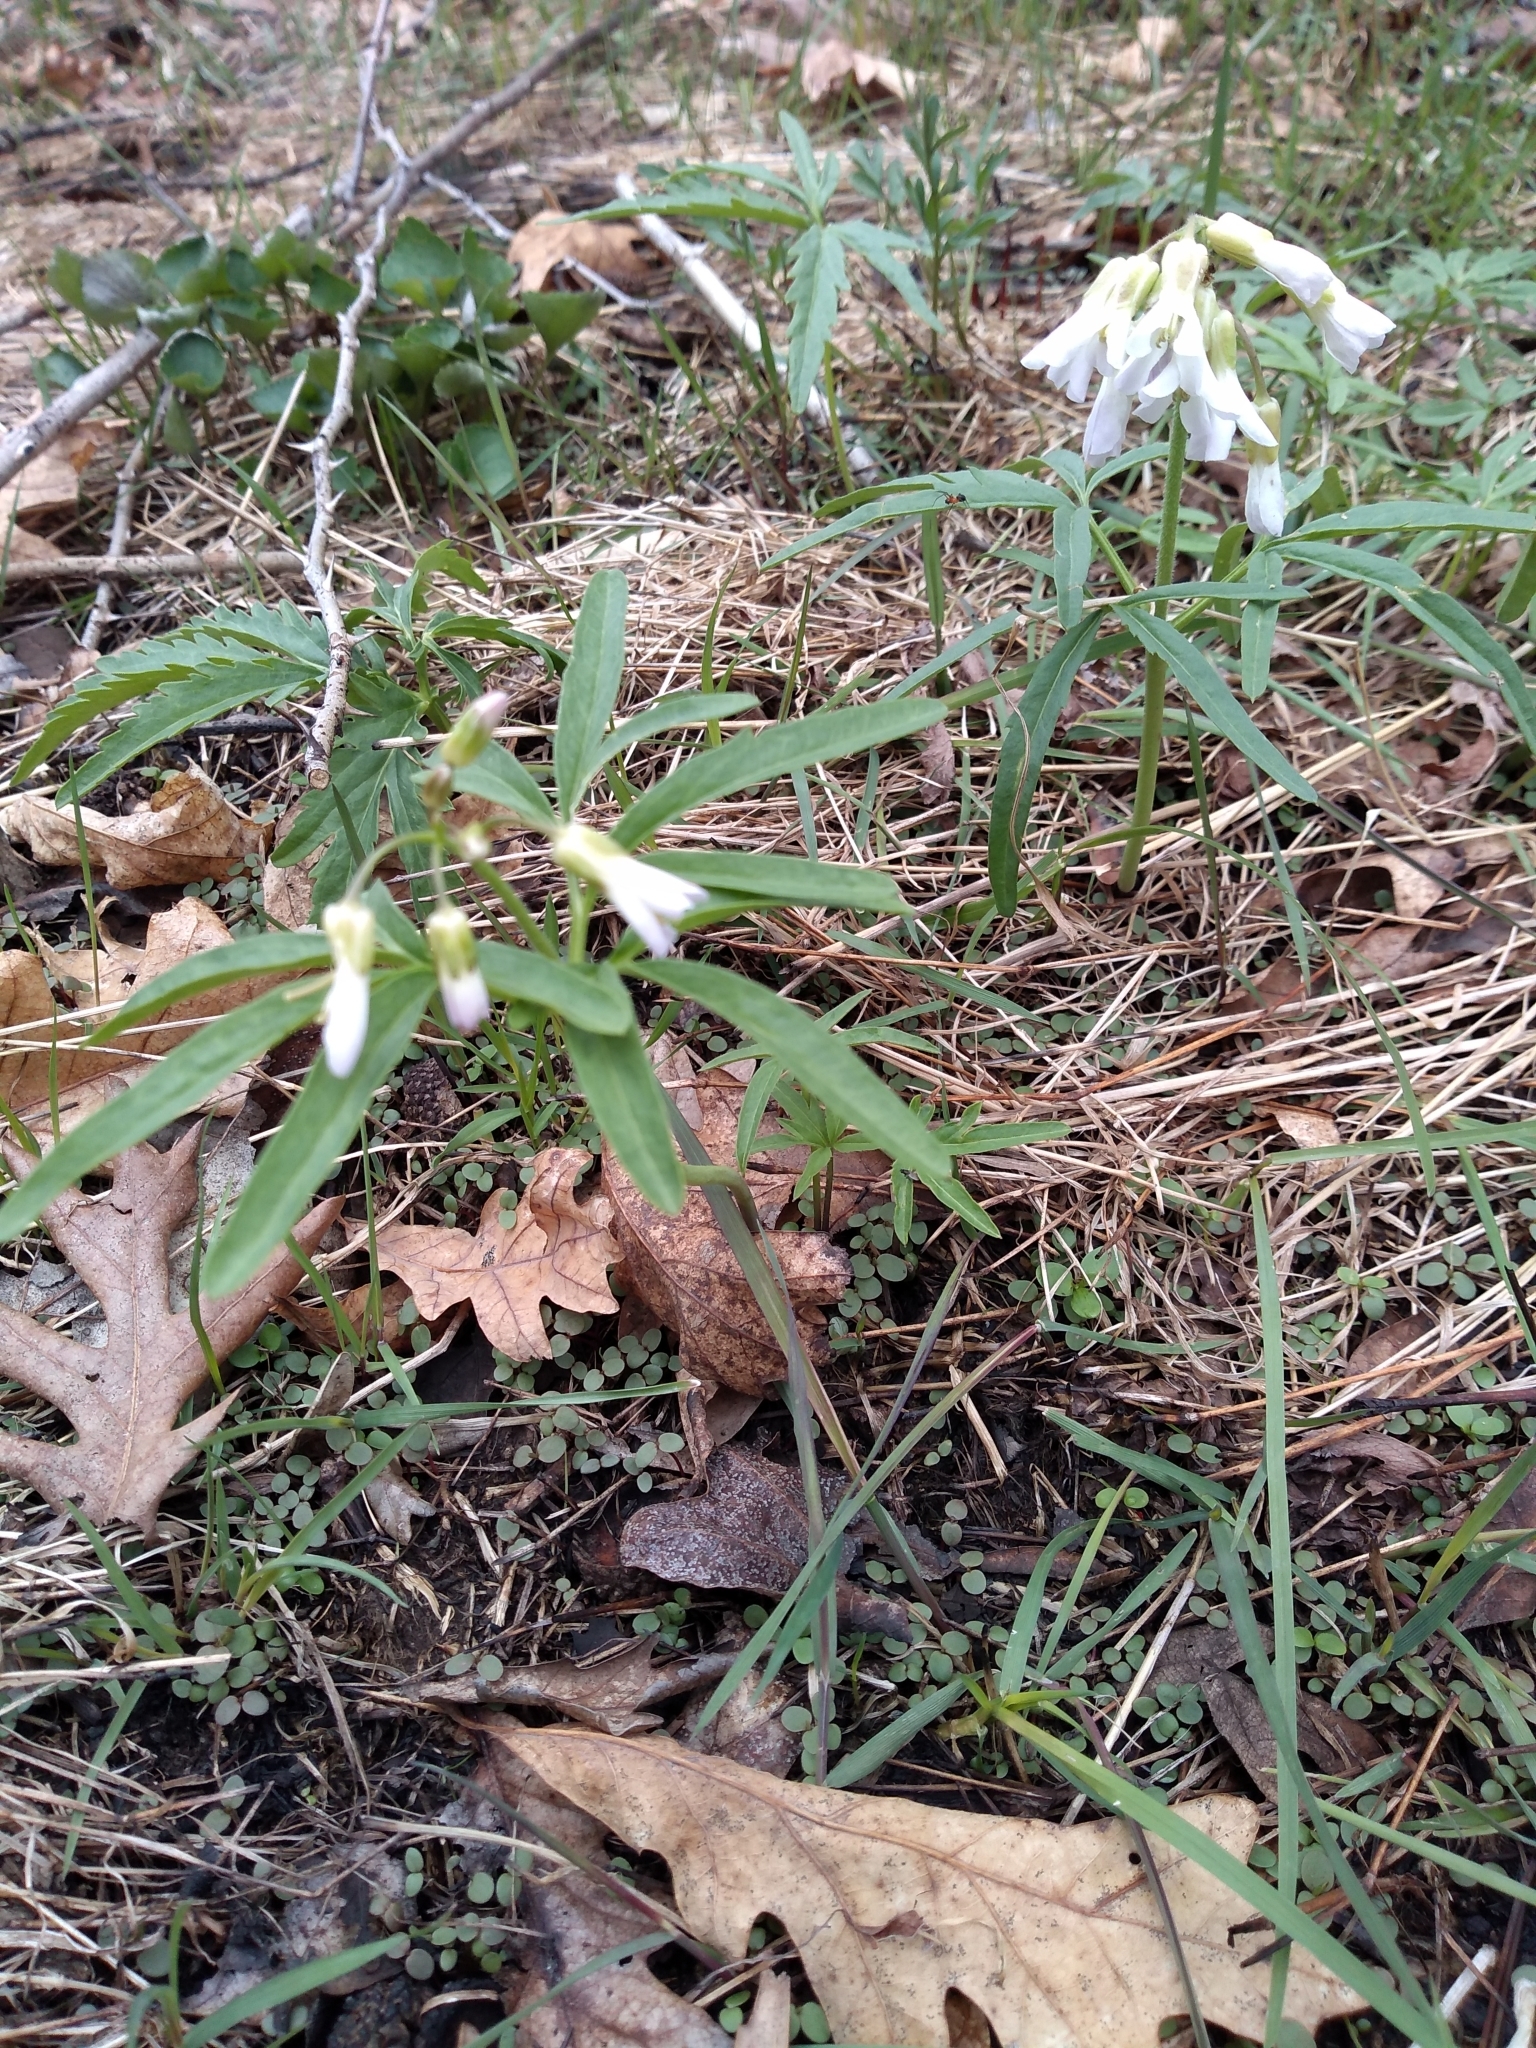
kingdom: Plantae
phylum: Tracheophyta
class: Magnoliopsida
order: Brassicales
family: Brassicaceae
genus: Cardamine
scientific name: Cardamine concatenata
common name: Cut-leaf toothcup
